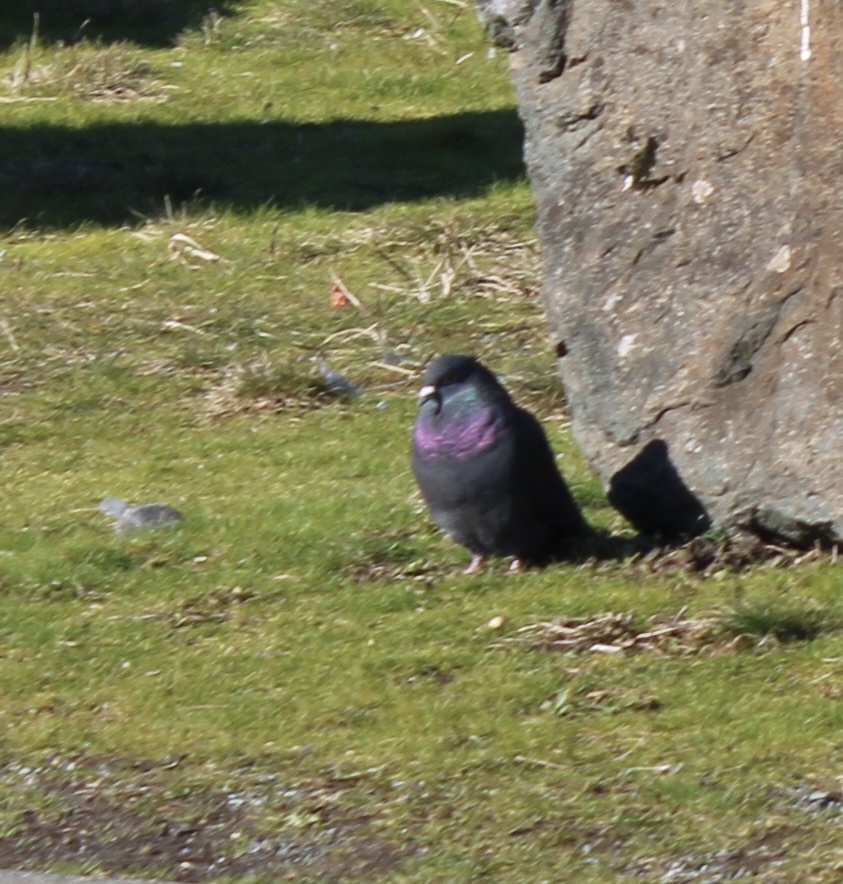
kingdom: Animalia
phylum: Chordata
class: Aves
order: Columbiformes
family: Columbidae
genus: Columba
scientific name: Columba livia
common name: Rock pigeon
